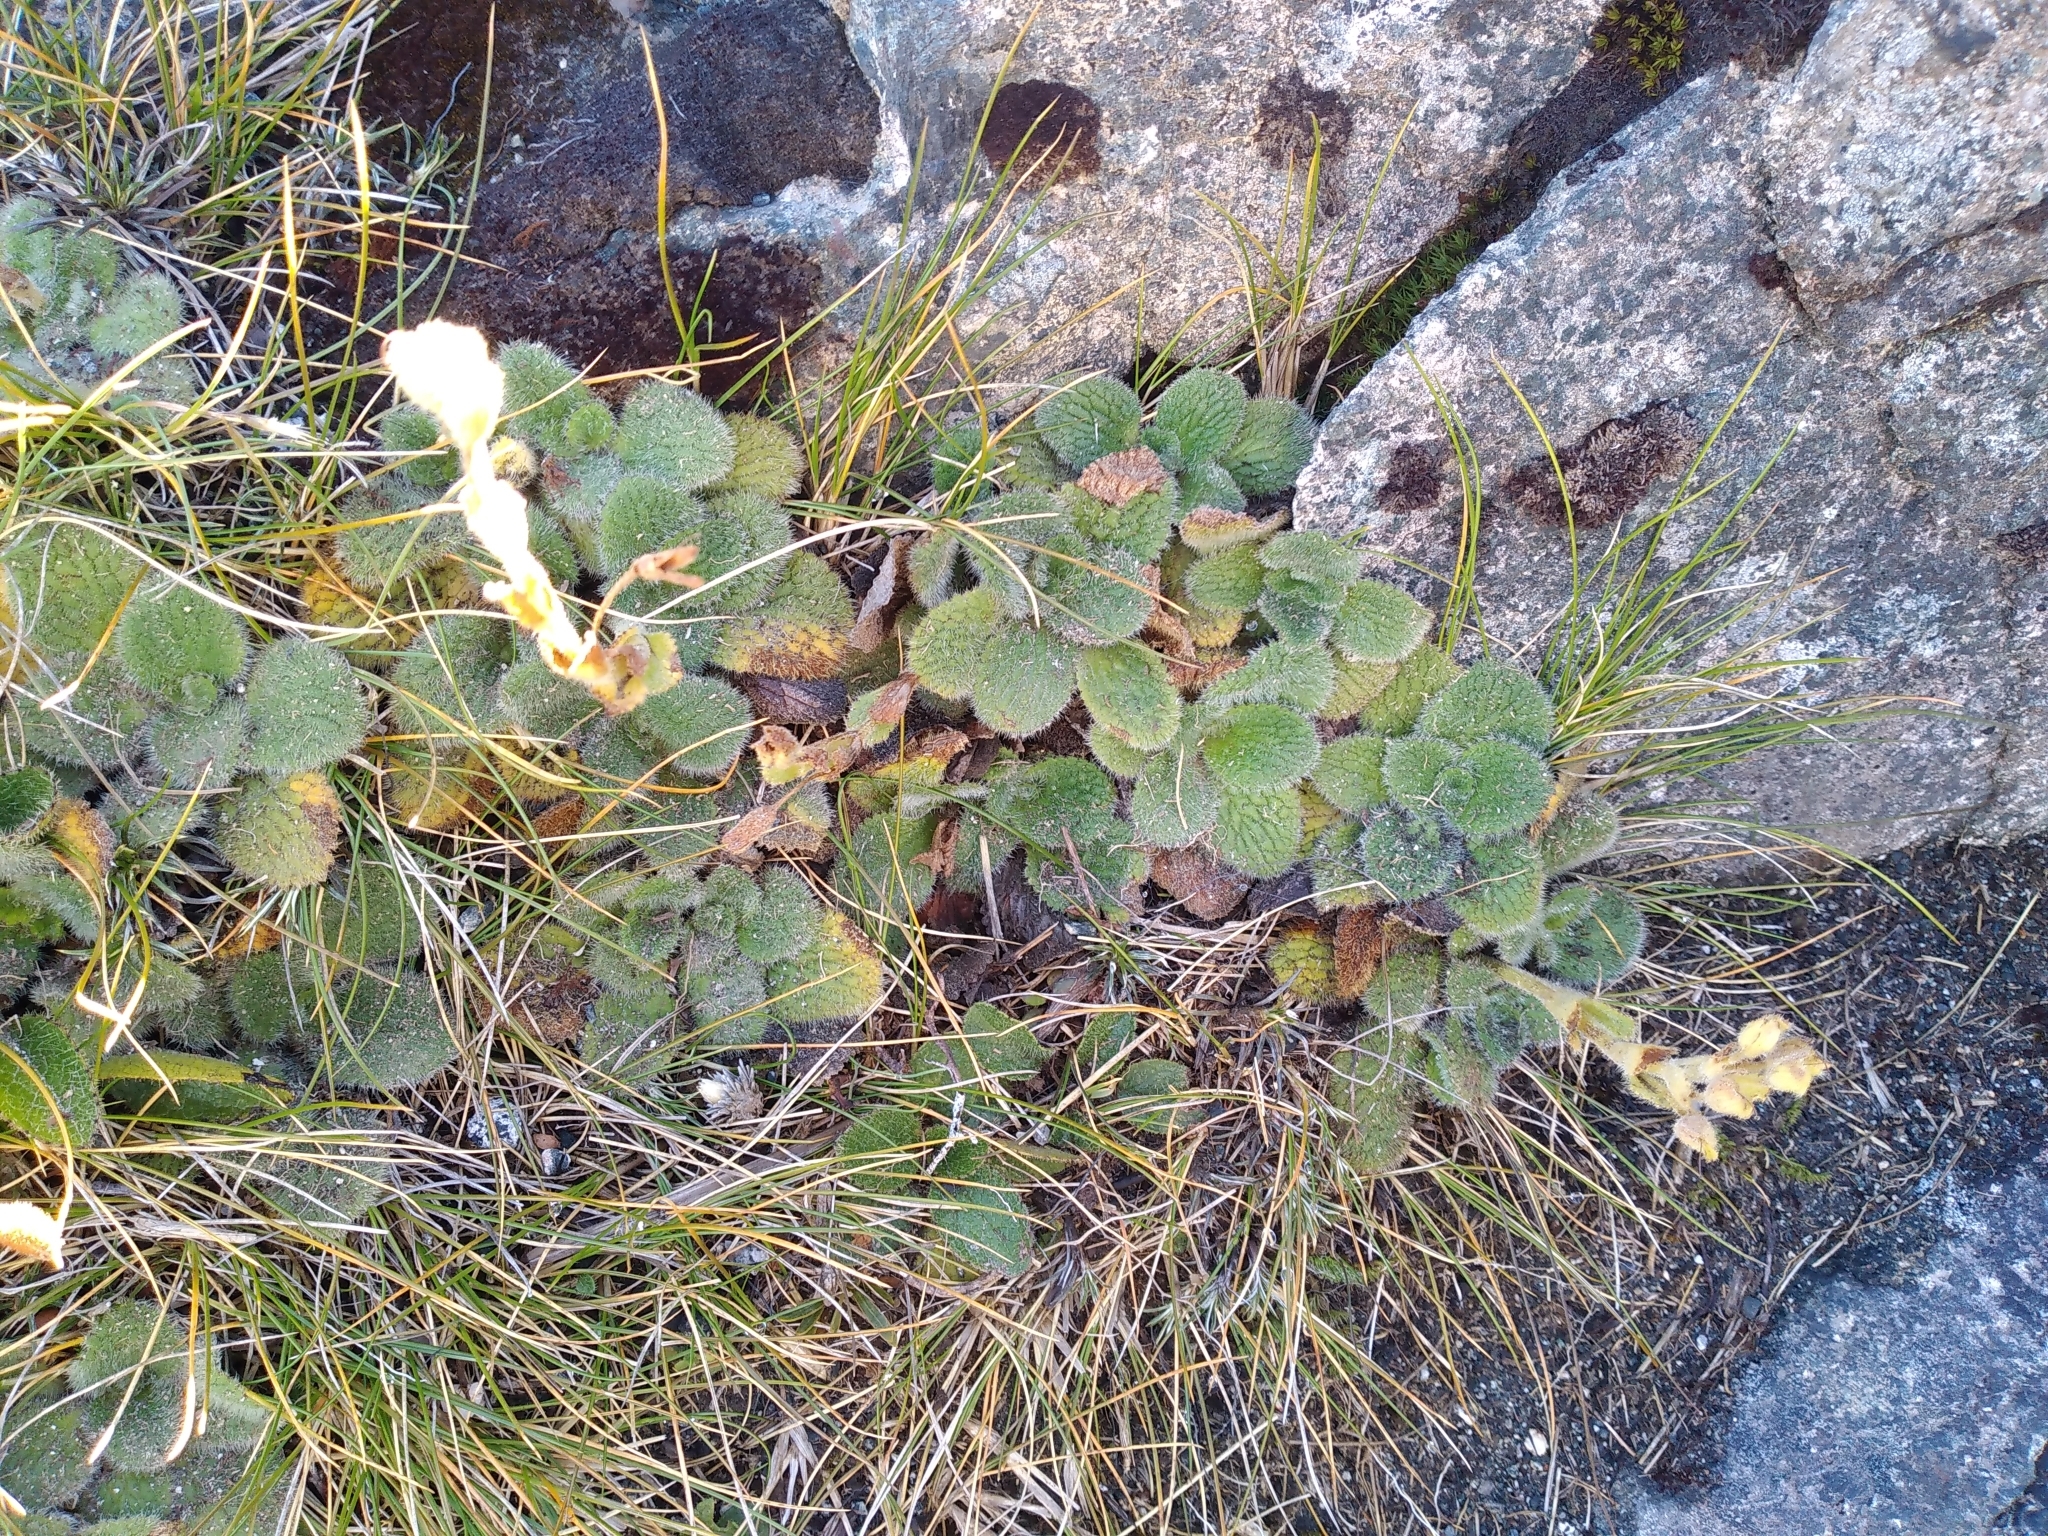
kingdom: Plantae
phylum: Tracheophyta
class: Magnoliopsida
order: Lamiales
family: Plantaginaceae
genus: Ourisia
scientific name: Ourisia sessilifolia
